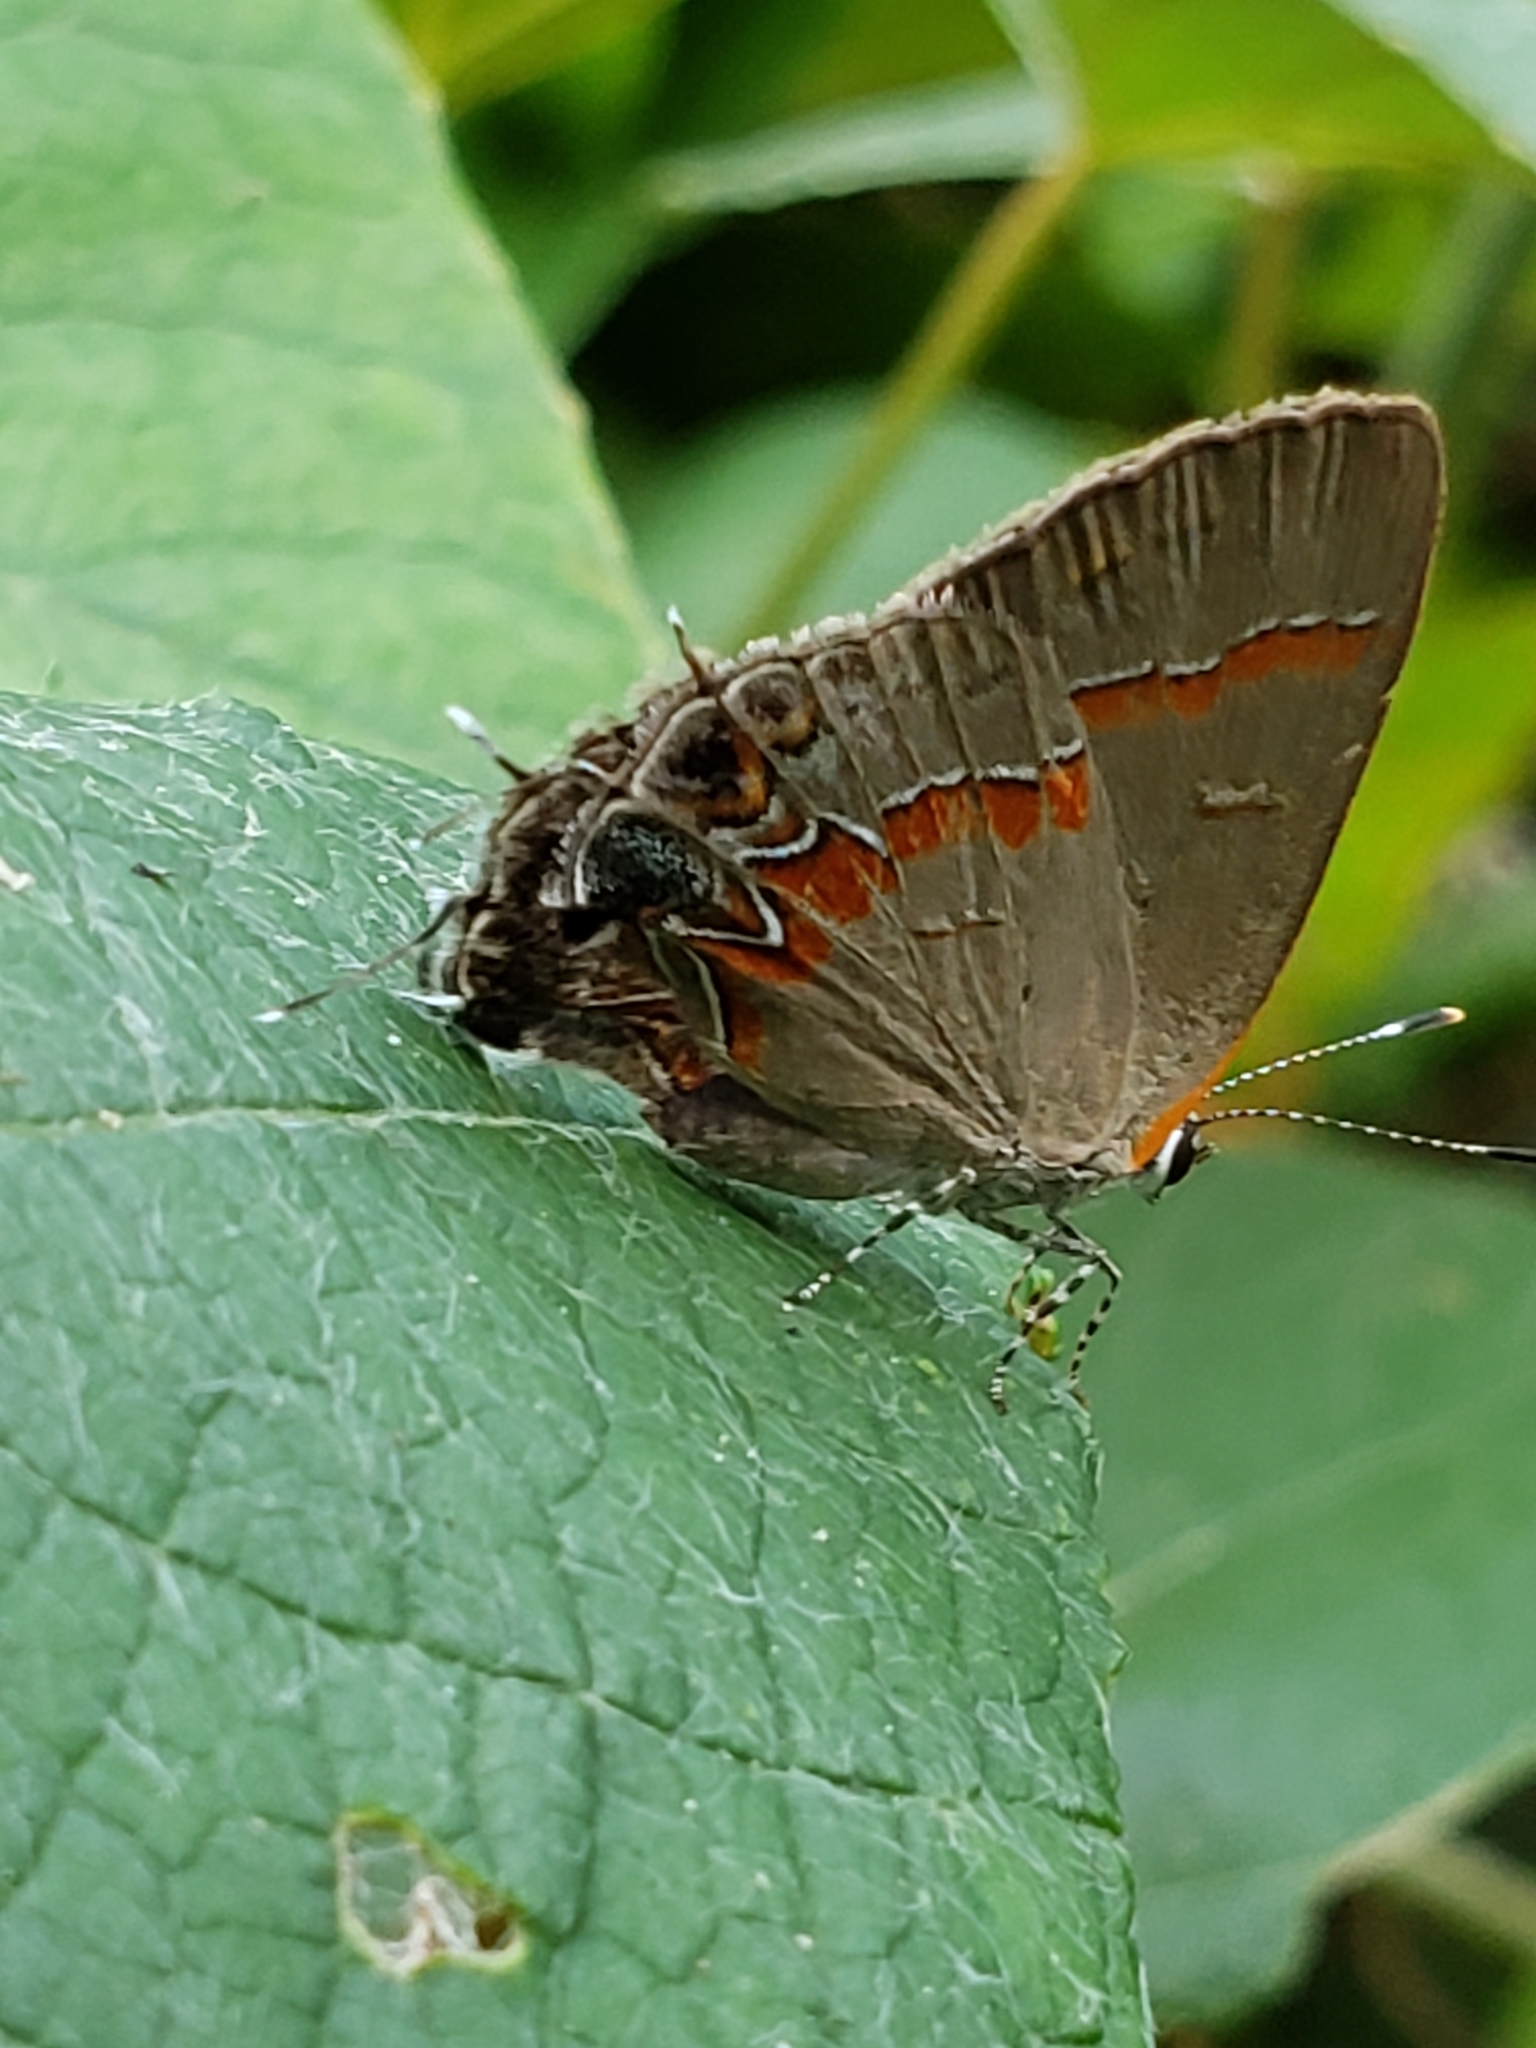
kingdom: Animalia
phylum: Arthropoda
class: Insecta
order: Lepidoptera
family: Lycaenidae
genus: Calycopis
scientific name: Calycopis cecrops
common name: Red-banded hairstreak
